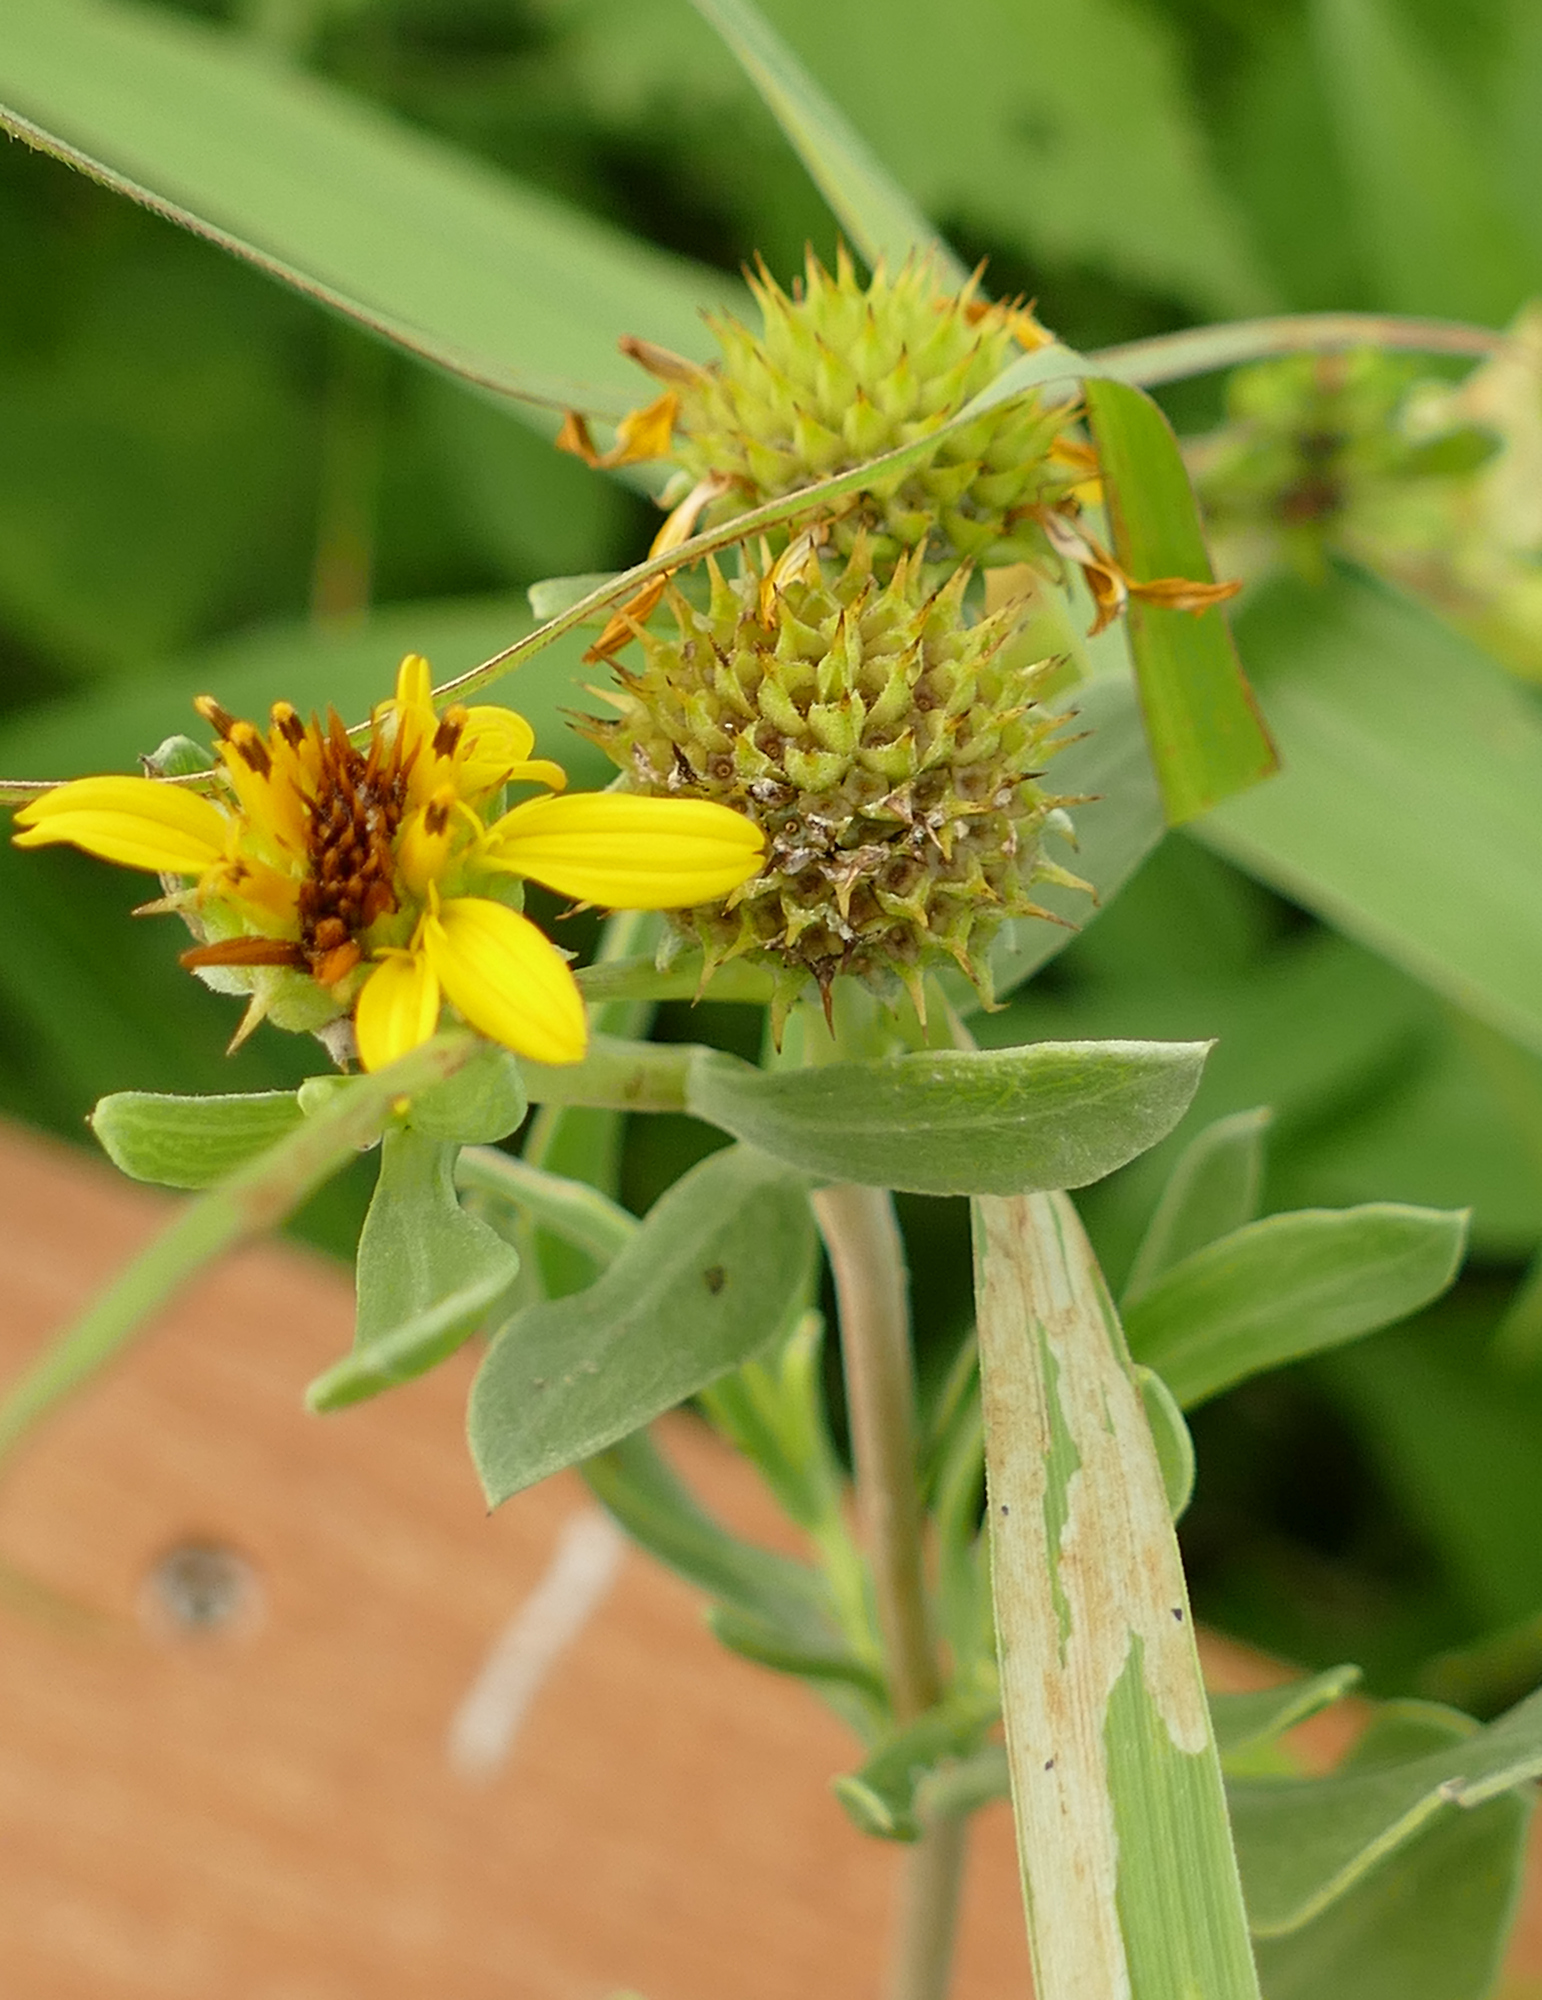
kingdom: Plantae
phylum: Tracheophyta
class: Magnoliopsida
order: Asterales
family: Asteraceae
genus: Borrichia
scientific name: Borrichia frutescens
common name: Sea oxeye
